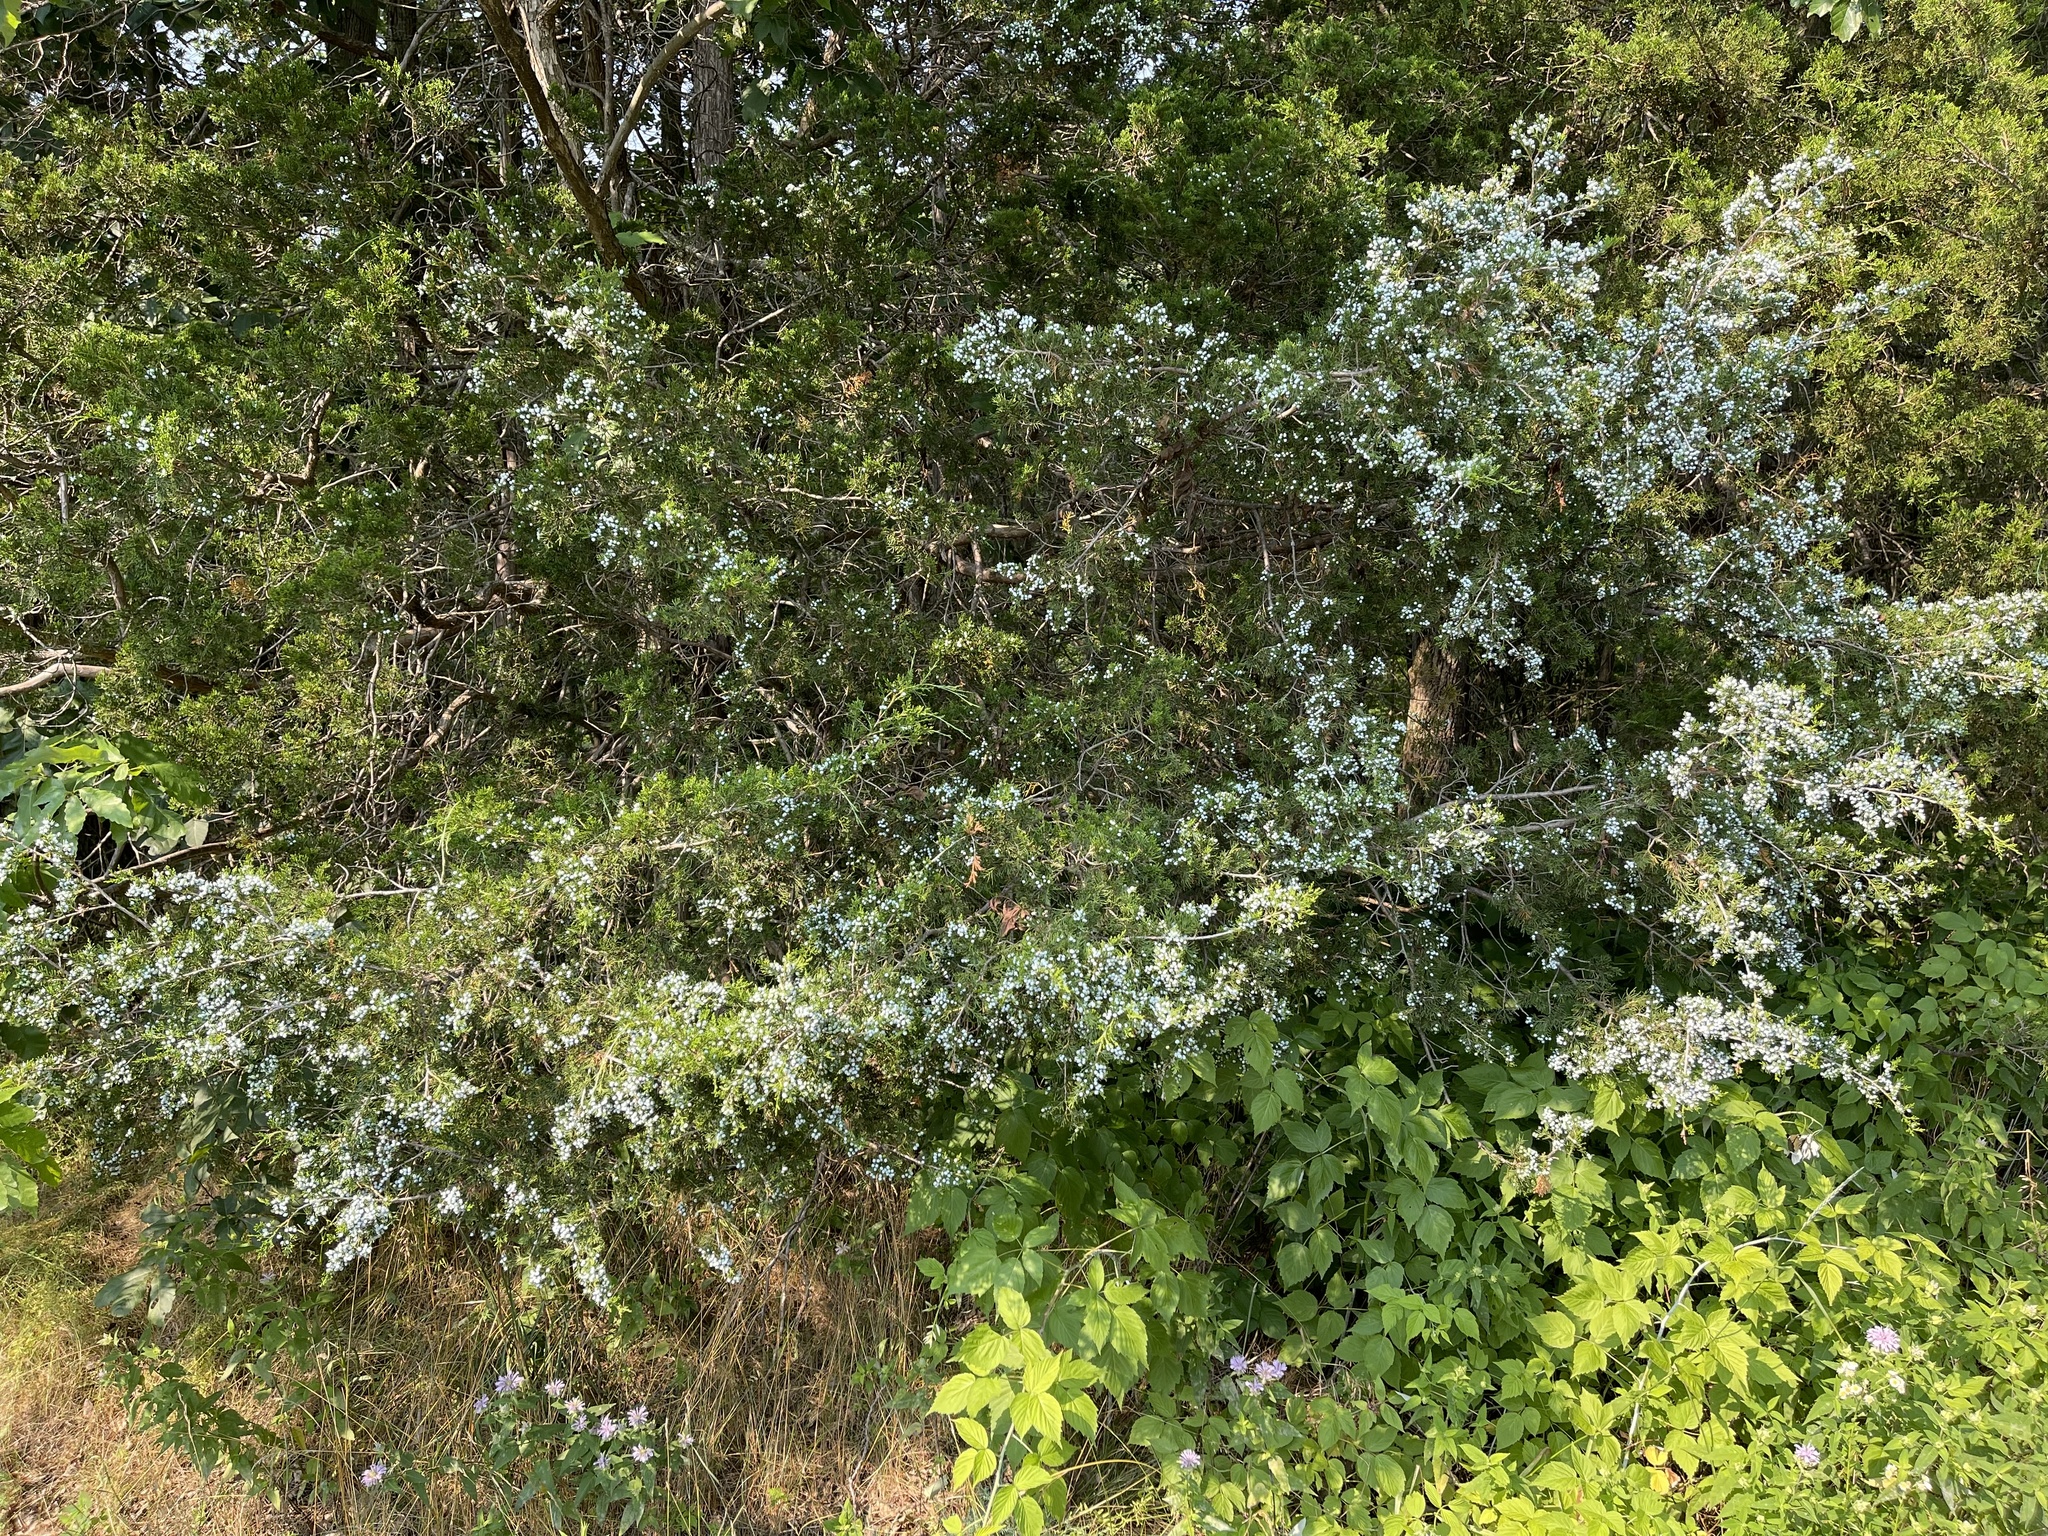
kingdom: Plantae
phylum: Tracheophyta
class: Pinopsida
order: Pinales
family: Cupressaceae
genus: Juniperus
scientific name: Juniperus virginiana
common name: Red juniper
